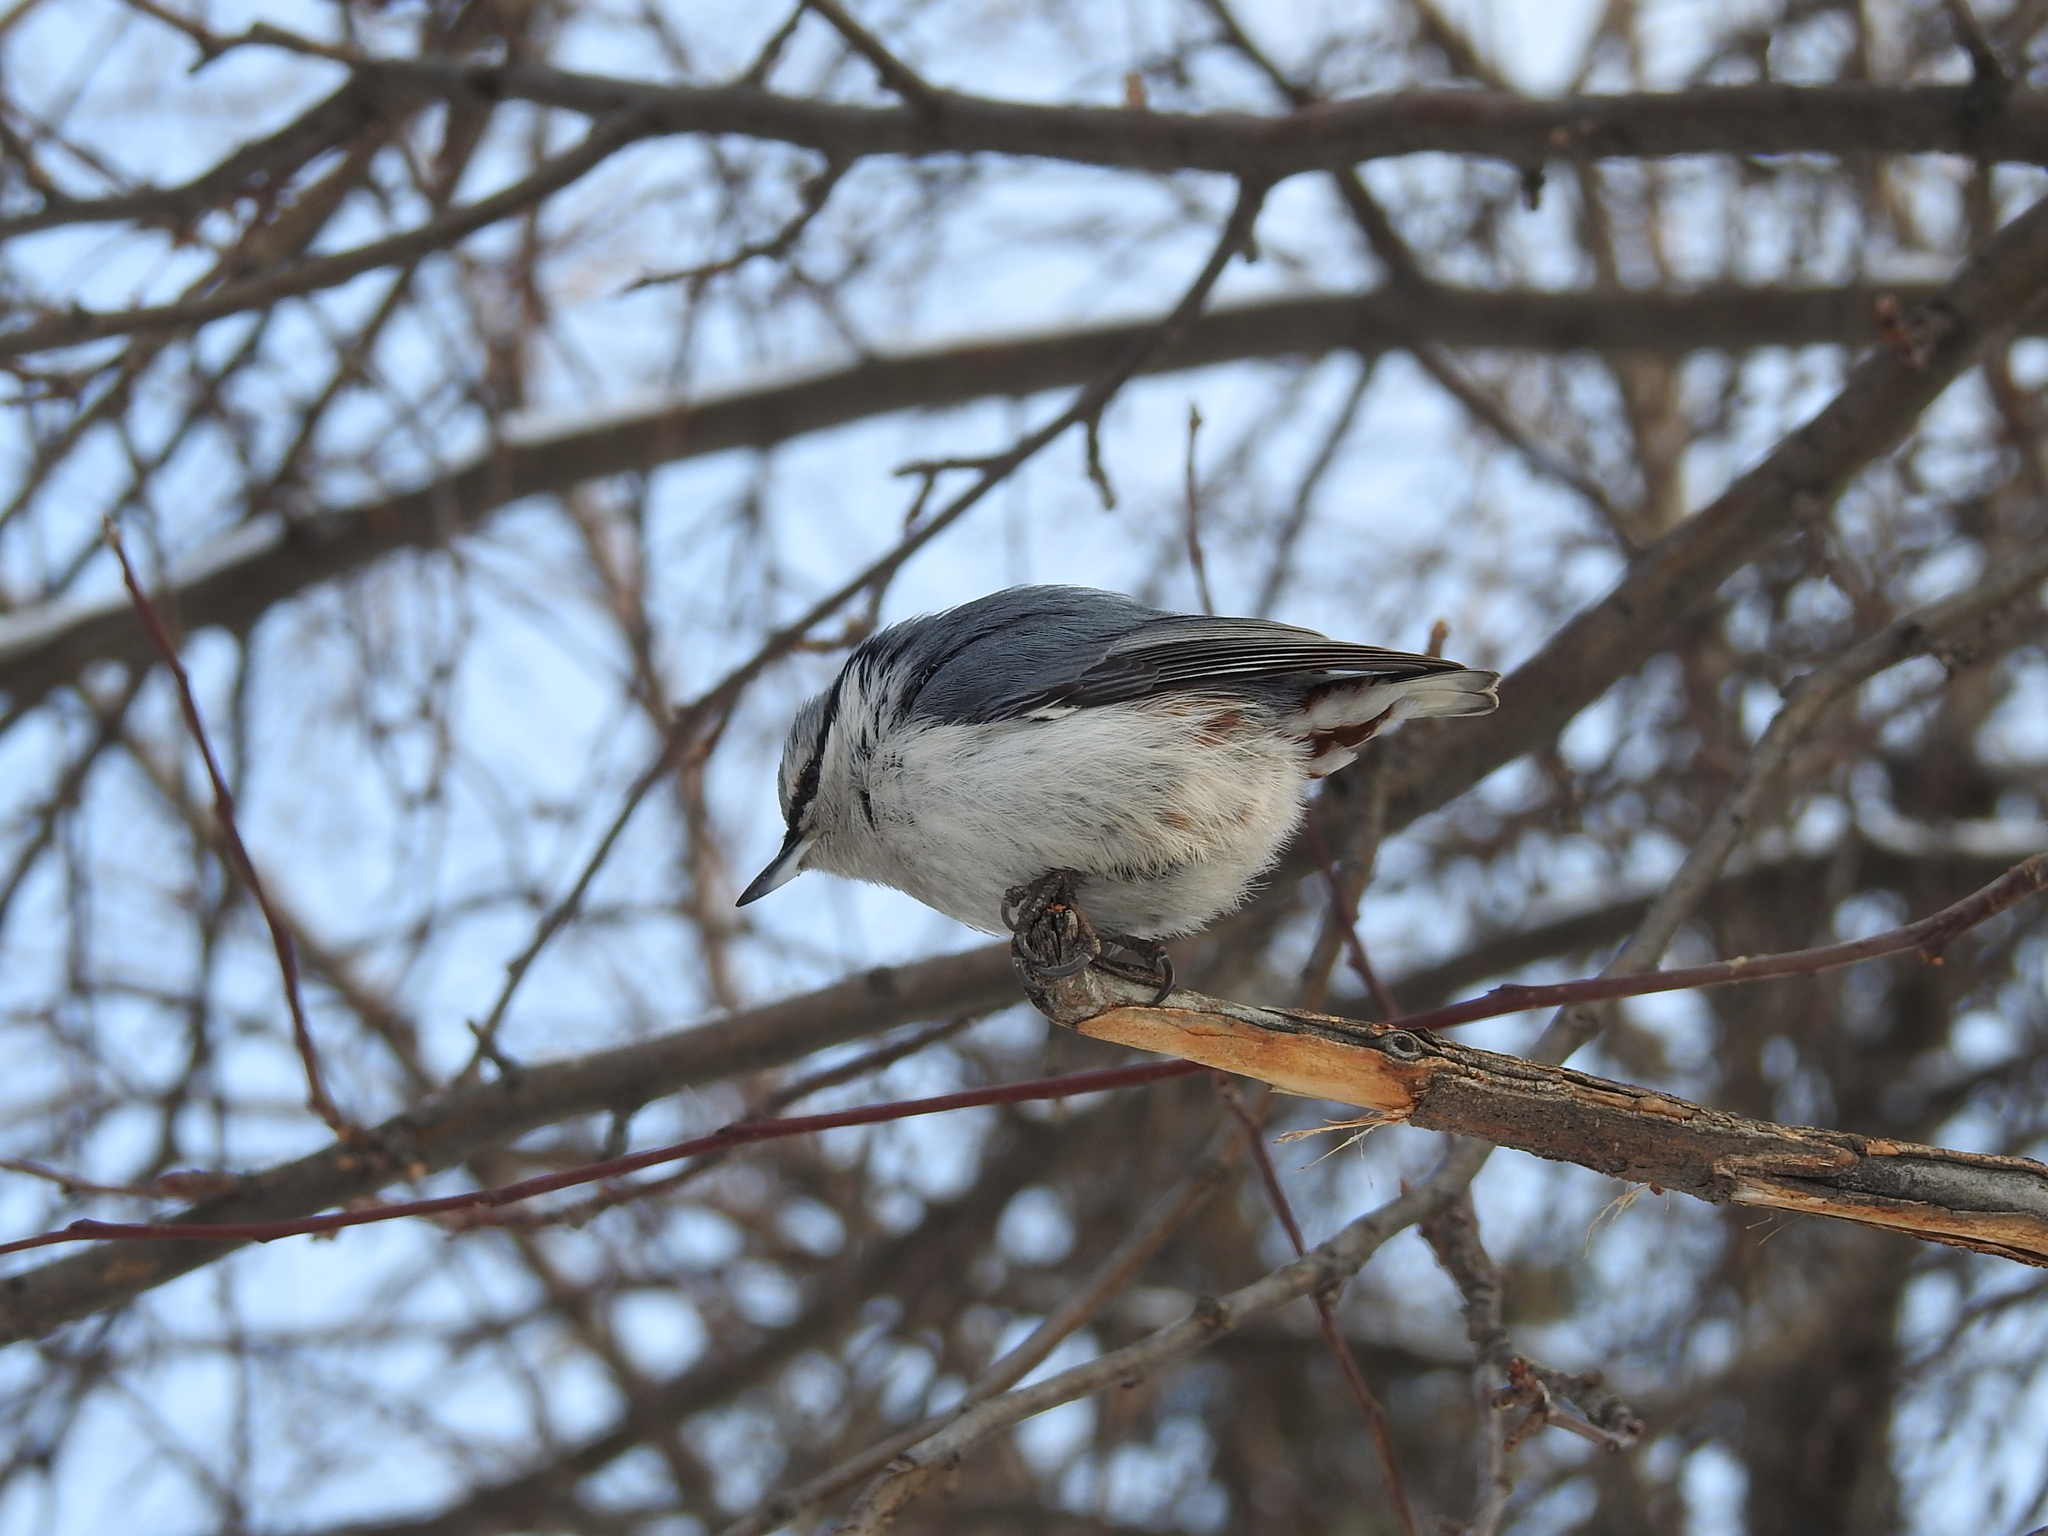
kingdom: Animalia
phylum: Chordata
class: Aves
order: Passeriformes
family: Sittidae
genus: Sitta
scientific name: Sitta europaea
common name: Eurasian nuthatch
